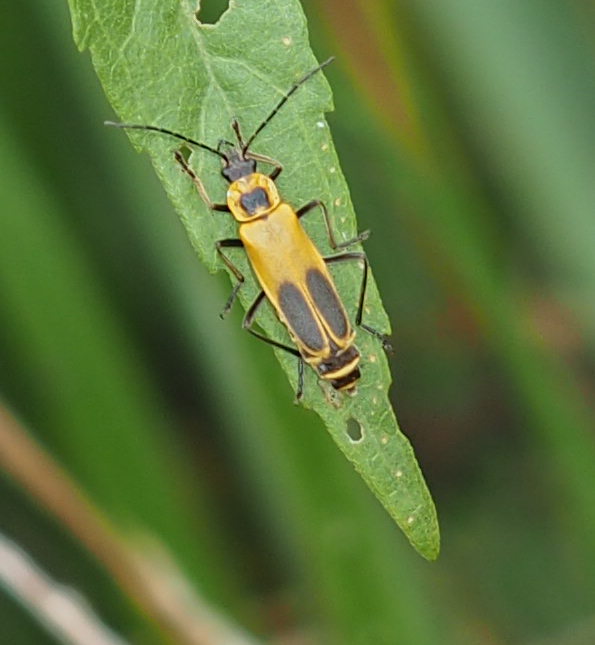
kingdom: Animalia
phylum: Arthropoda
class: Insecta
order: Coleoptera
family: Cantharidae
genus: Chauliognathus
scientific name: Chauliognathus pensylvanicus
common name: Goldenrod soldier beetle
